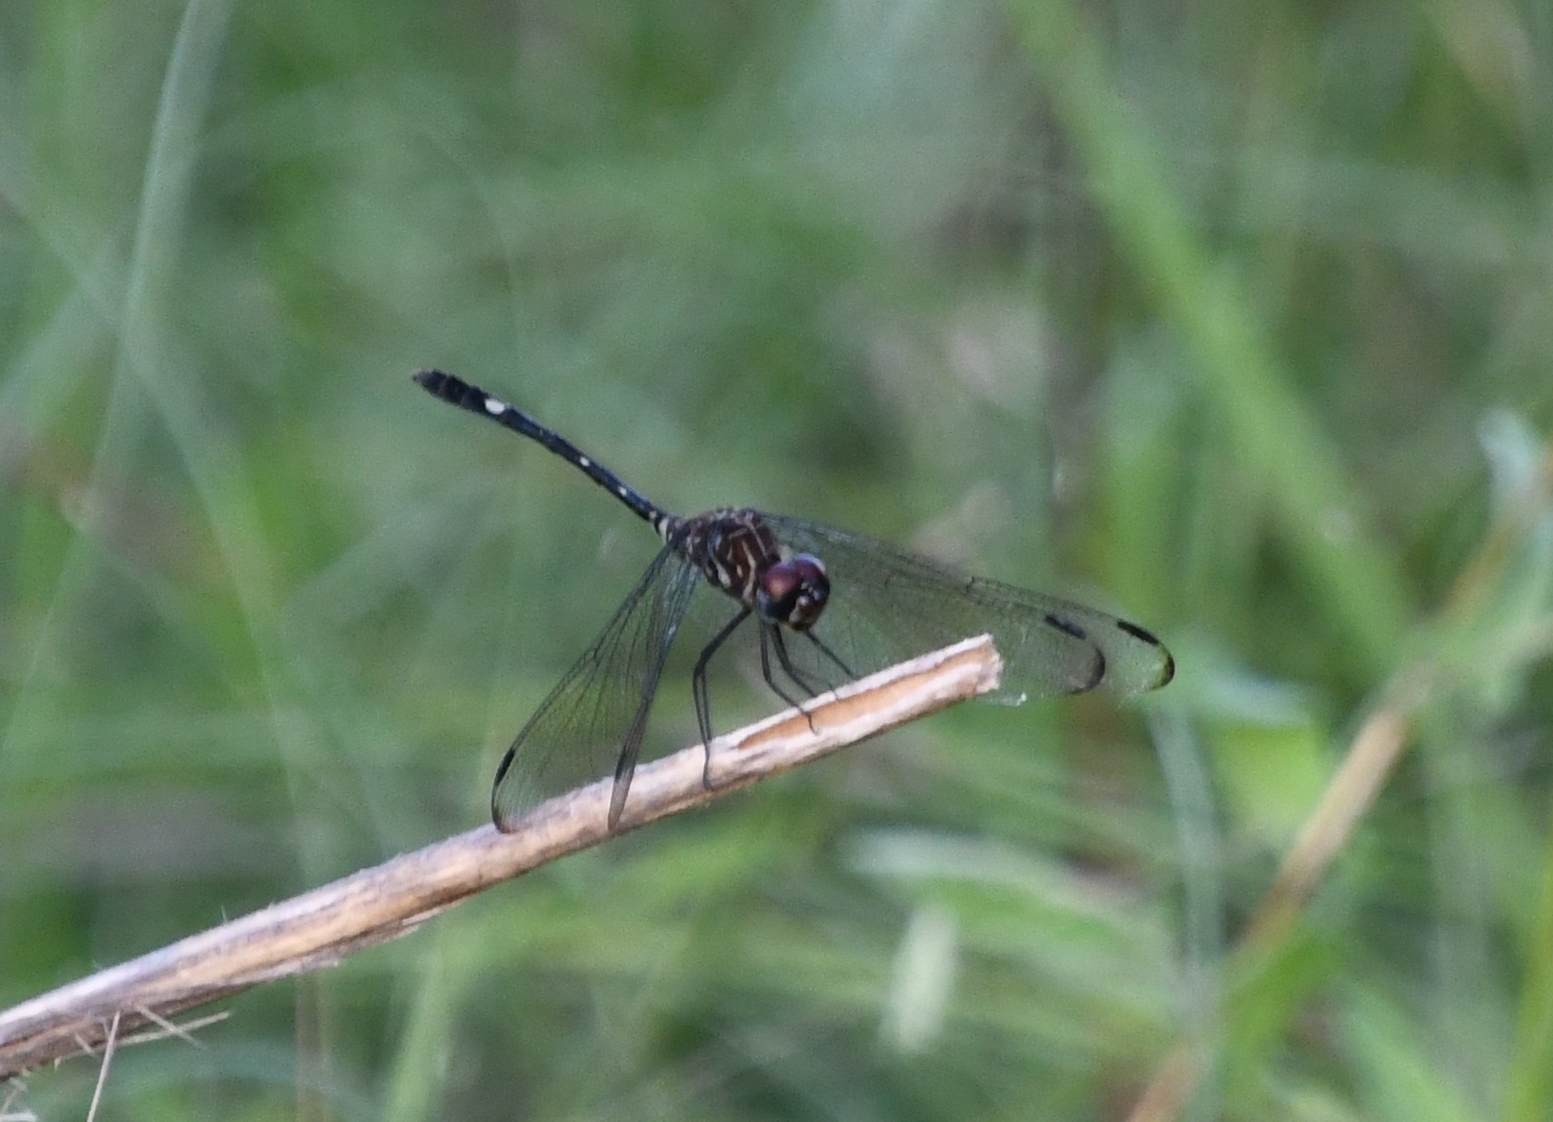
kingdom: Animalia
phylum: Arthropoda
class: Insecta
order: Odonata
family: Libellulidae
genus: Dythemis
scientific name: Dythemis velox
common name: Swift setwing
